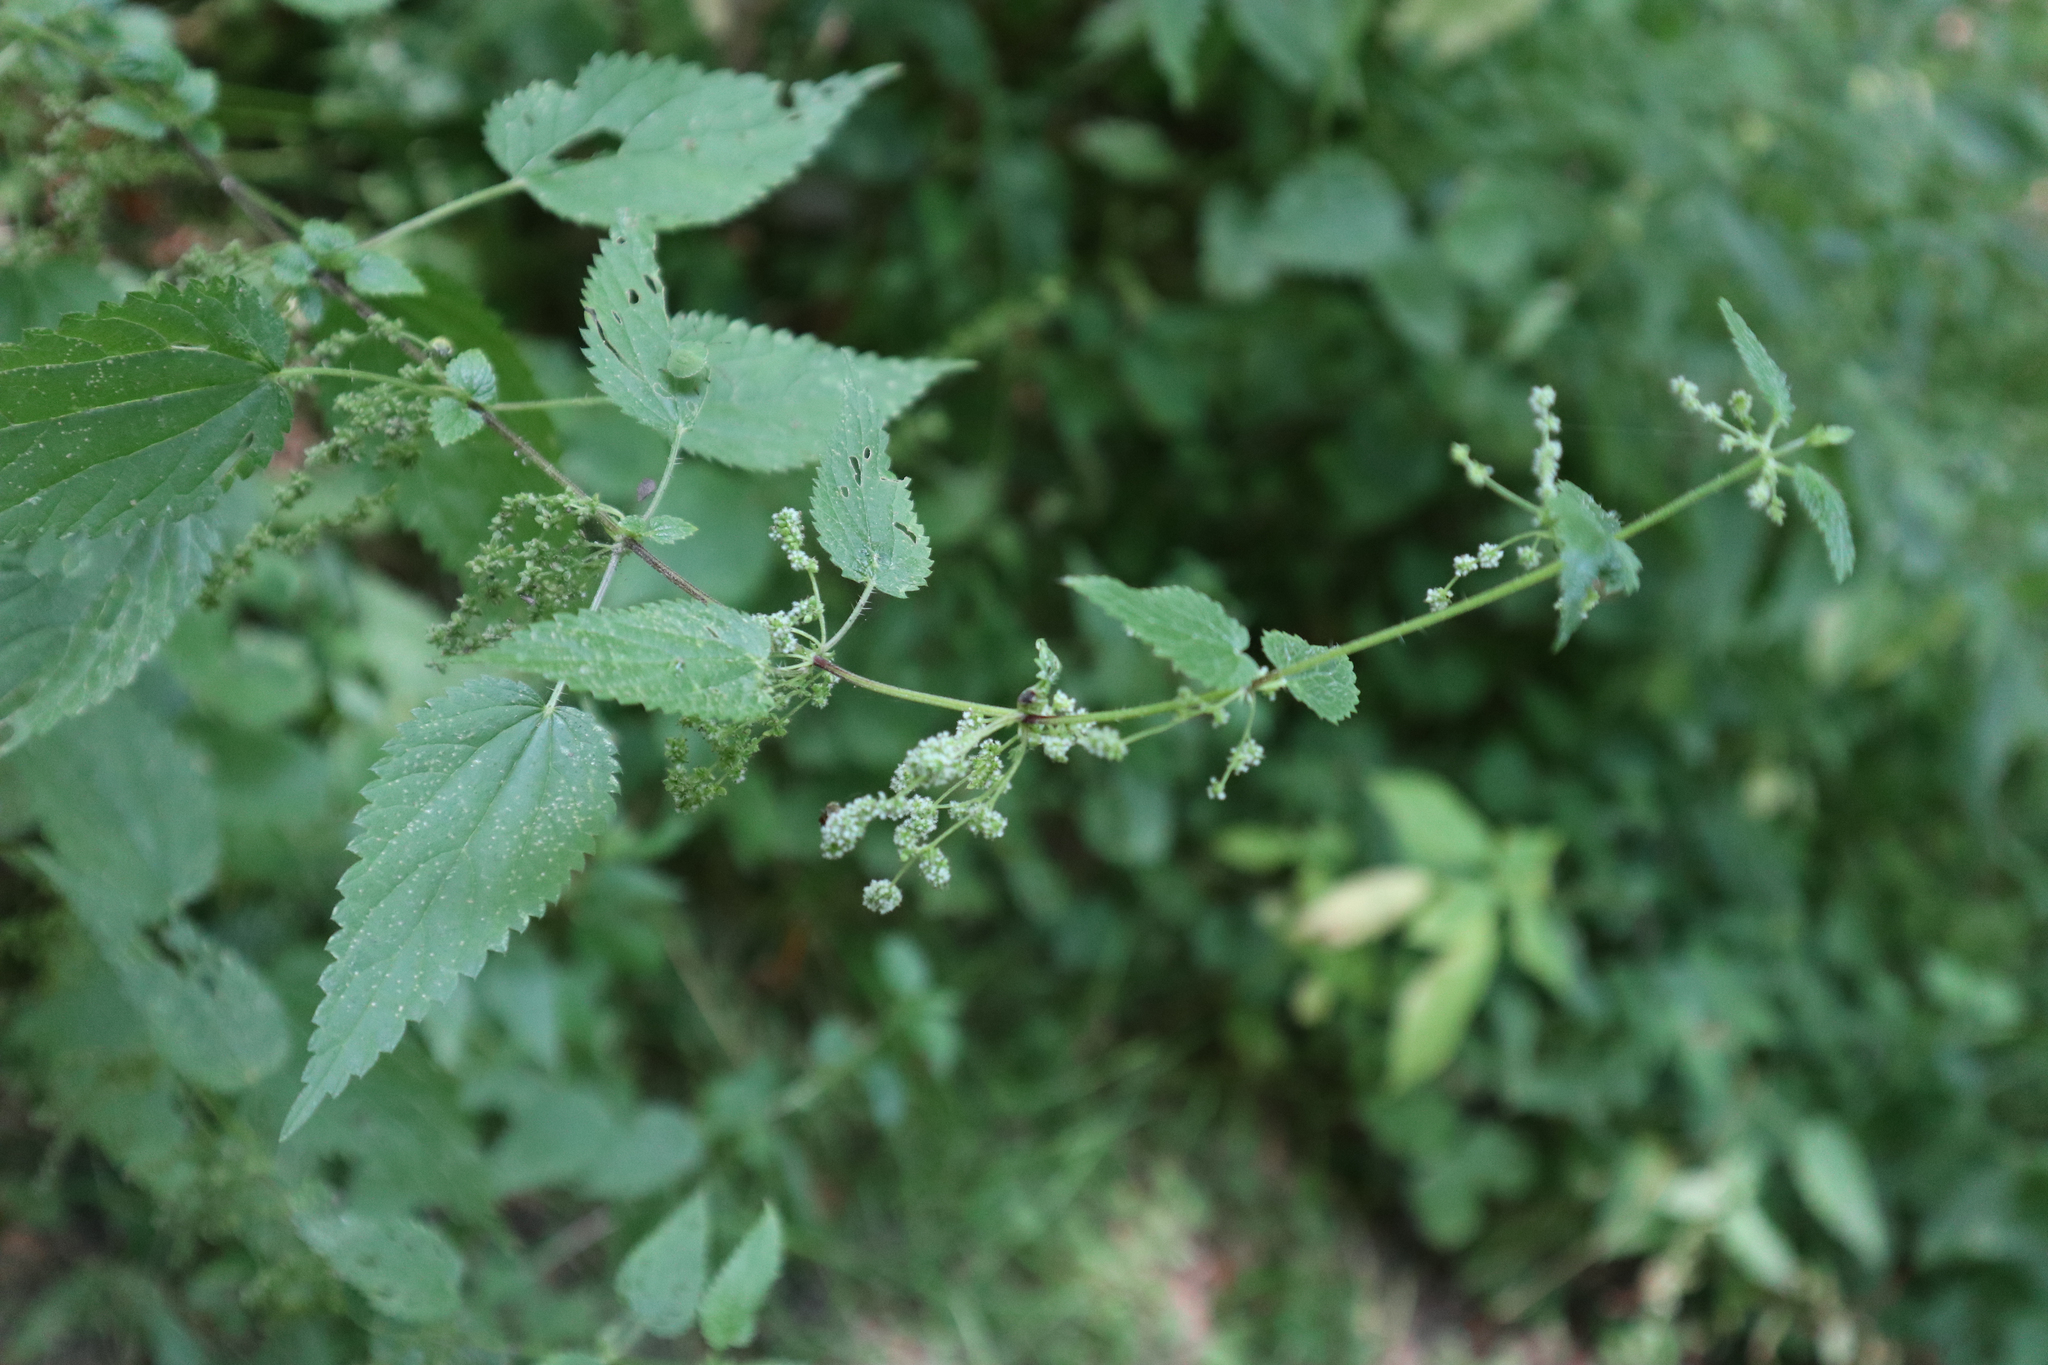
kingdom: Plantae
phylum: Tracheophyta
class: Magnoliopsida
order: Rosales
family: Urticaceae
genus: Urtica
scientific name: Urtica dioica
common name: Common nettle
